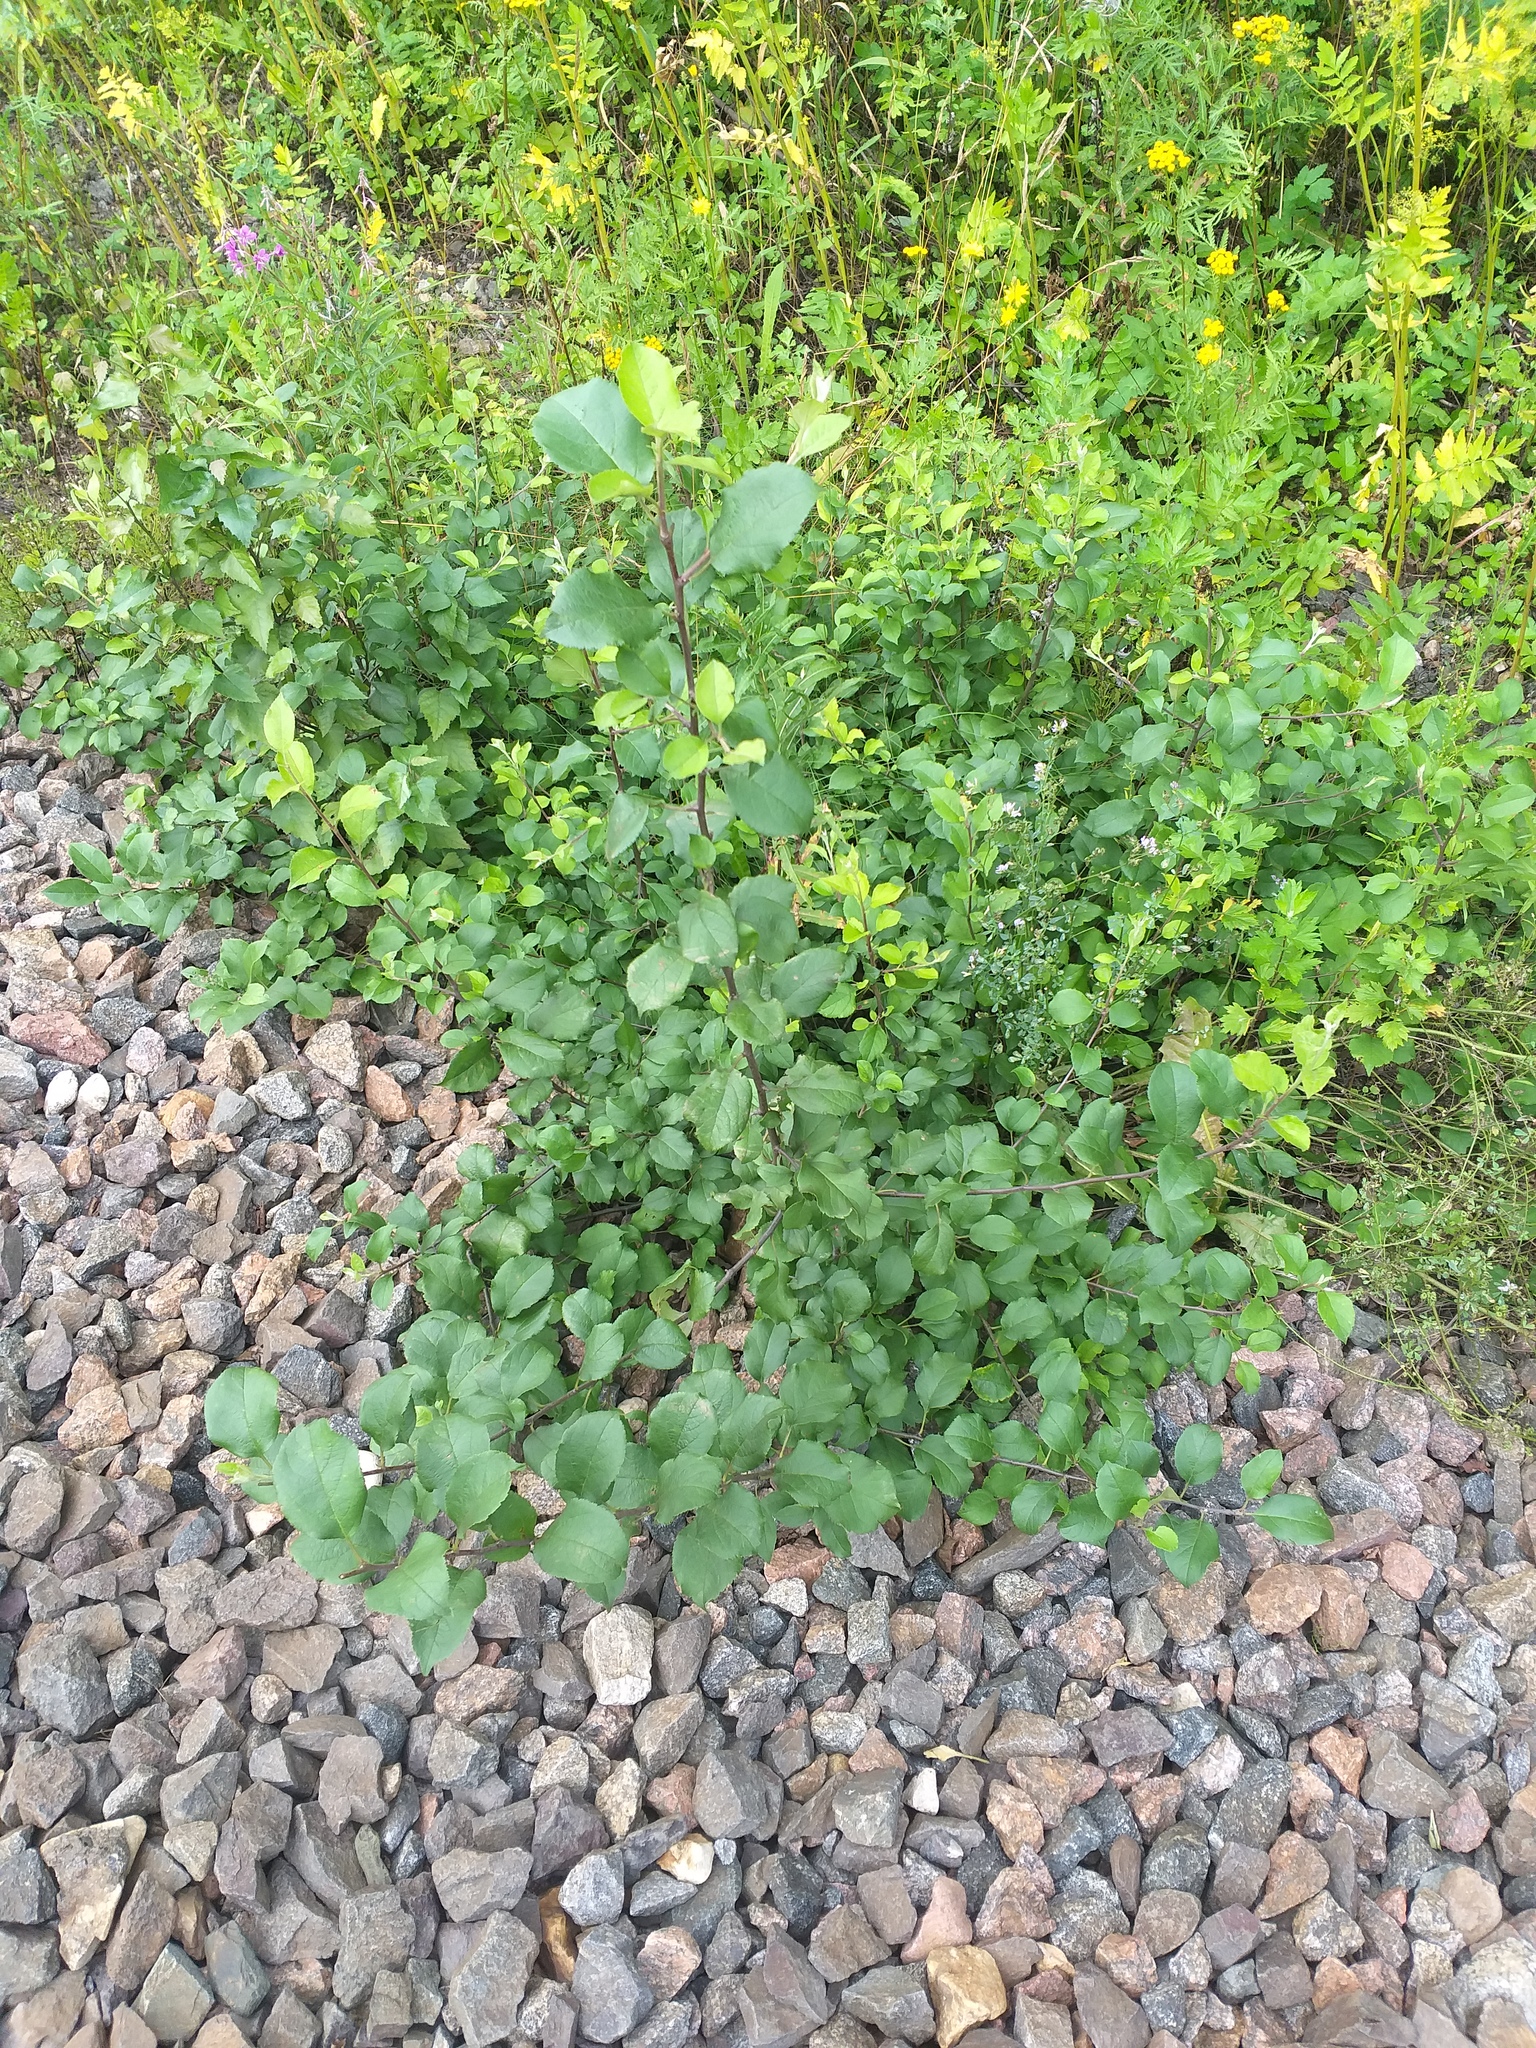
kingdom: Plantae
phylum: Tracheophyta
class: Magnoliopsida
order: Rosales
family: Rosaceae
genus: Malus
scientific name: Malus domestica
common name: Apple
